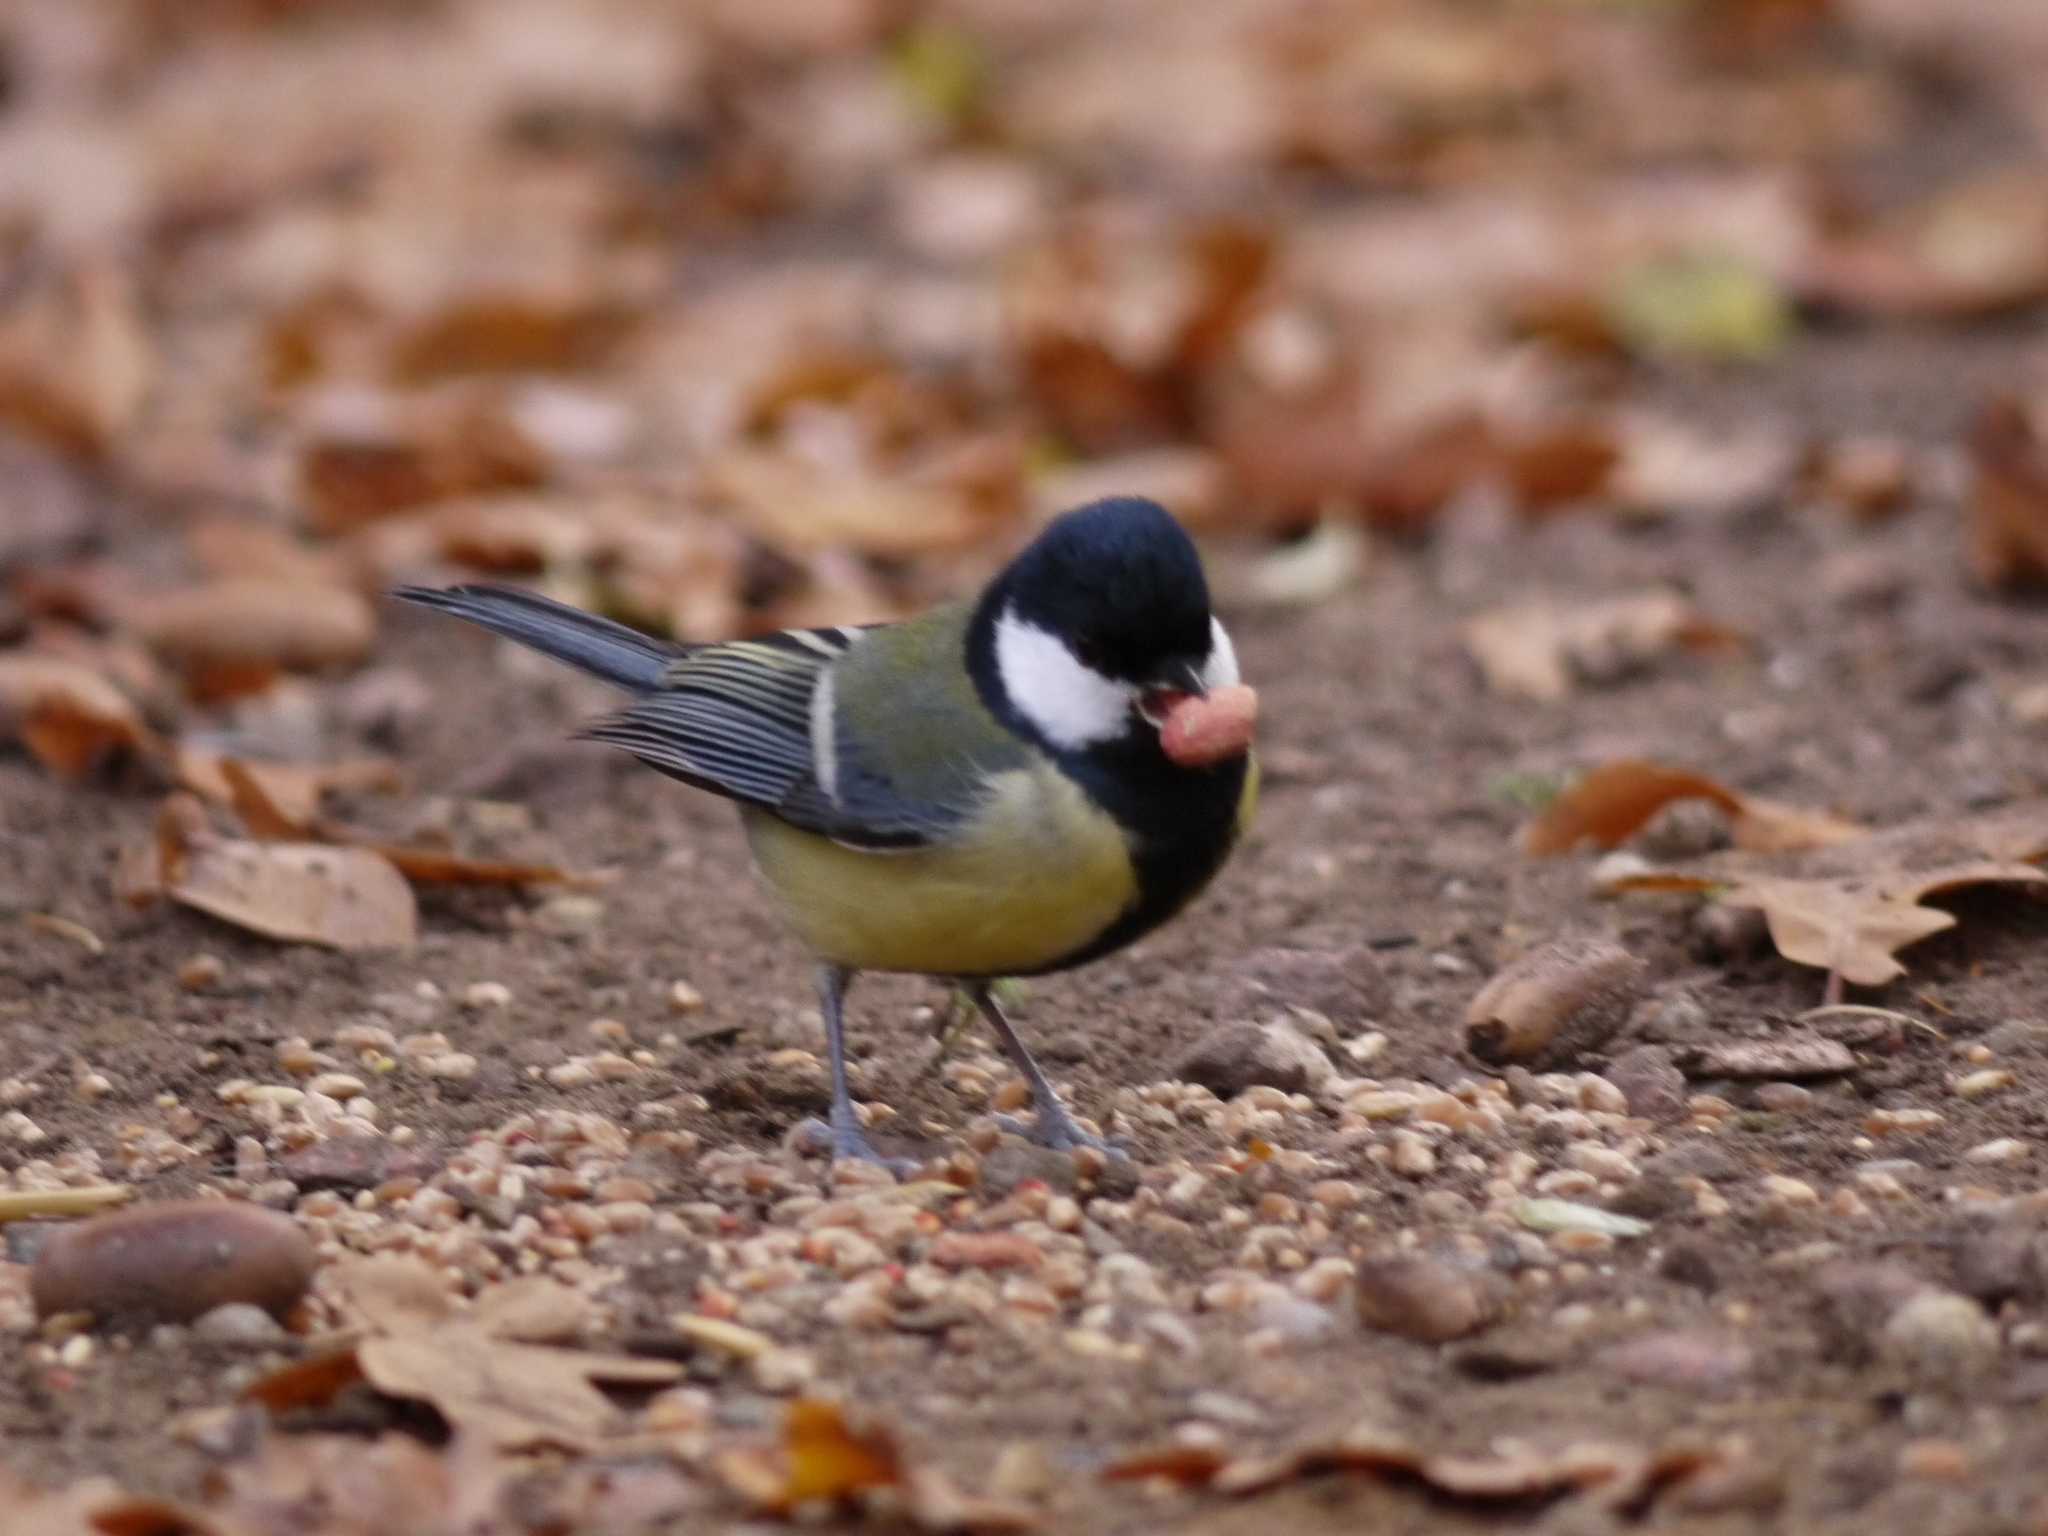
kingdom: Animalia
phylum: Chordata
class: Aves
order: Passeriformes
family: Paridae
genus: Parus
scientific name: Parus major
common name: Great tit
